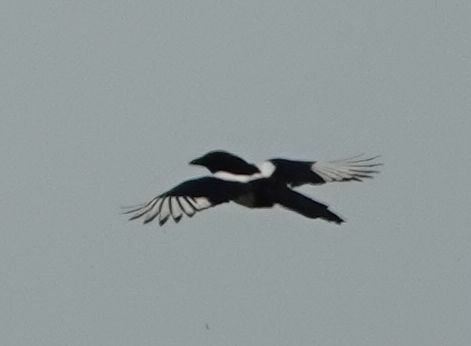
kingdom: Animalia
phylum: Chordata
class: Aves
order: Passeriformes
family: Corvidae
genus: Pica
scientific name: Pica pica
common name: Eurasian magpie
